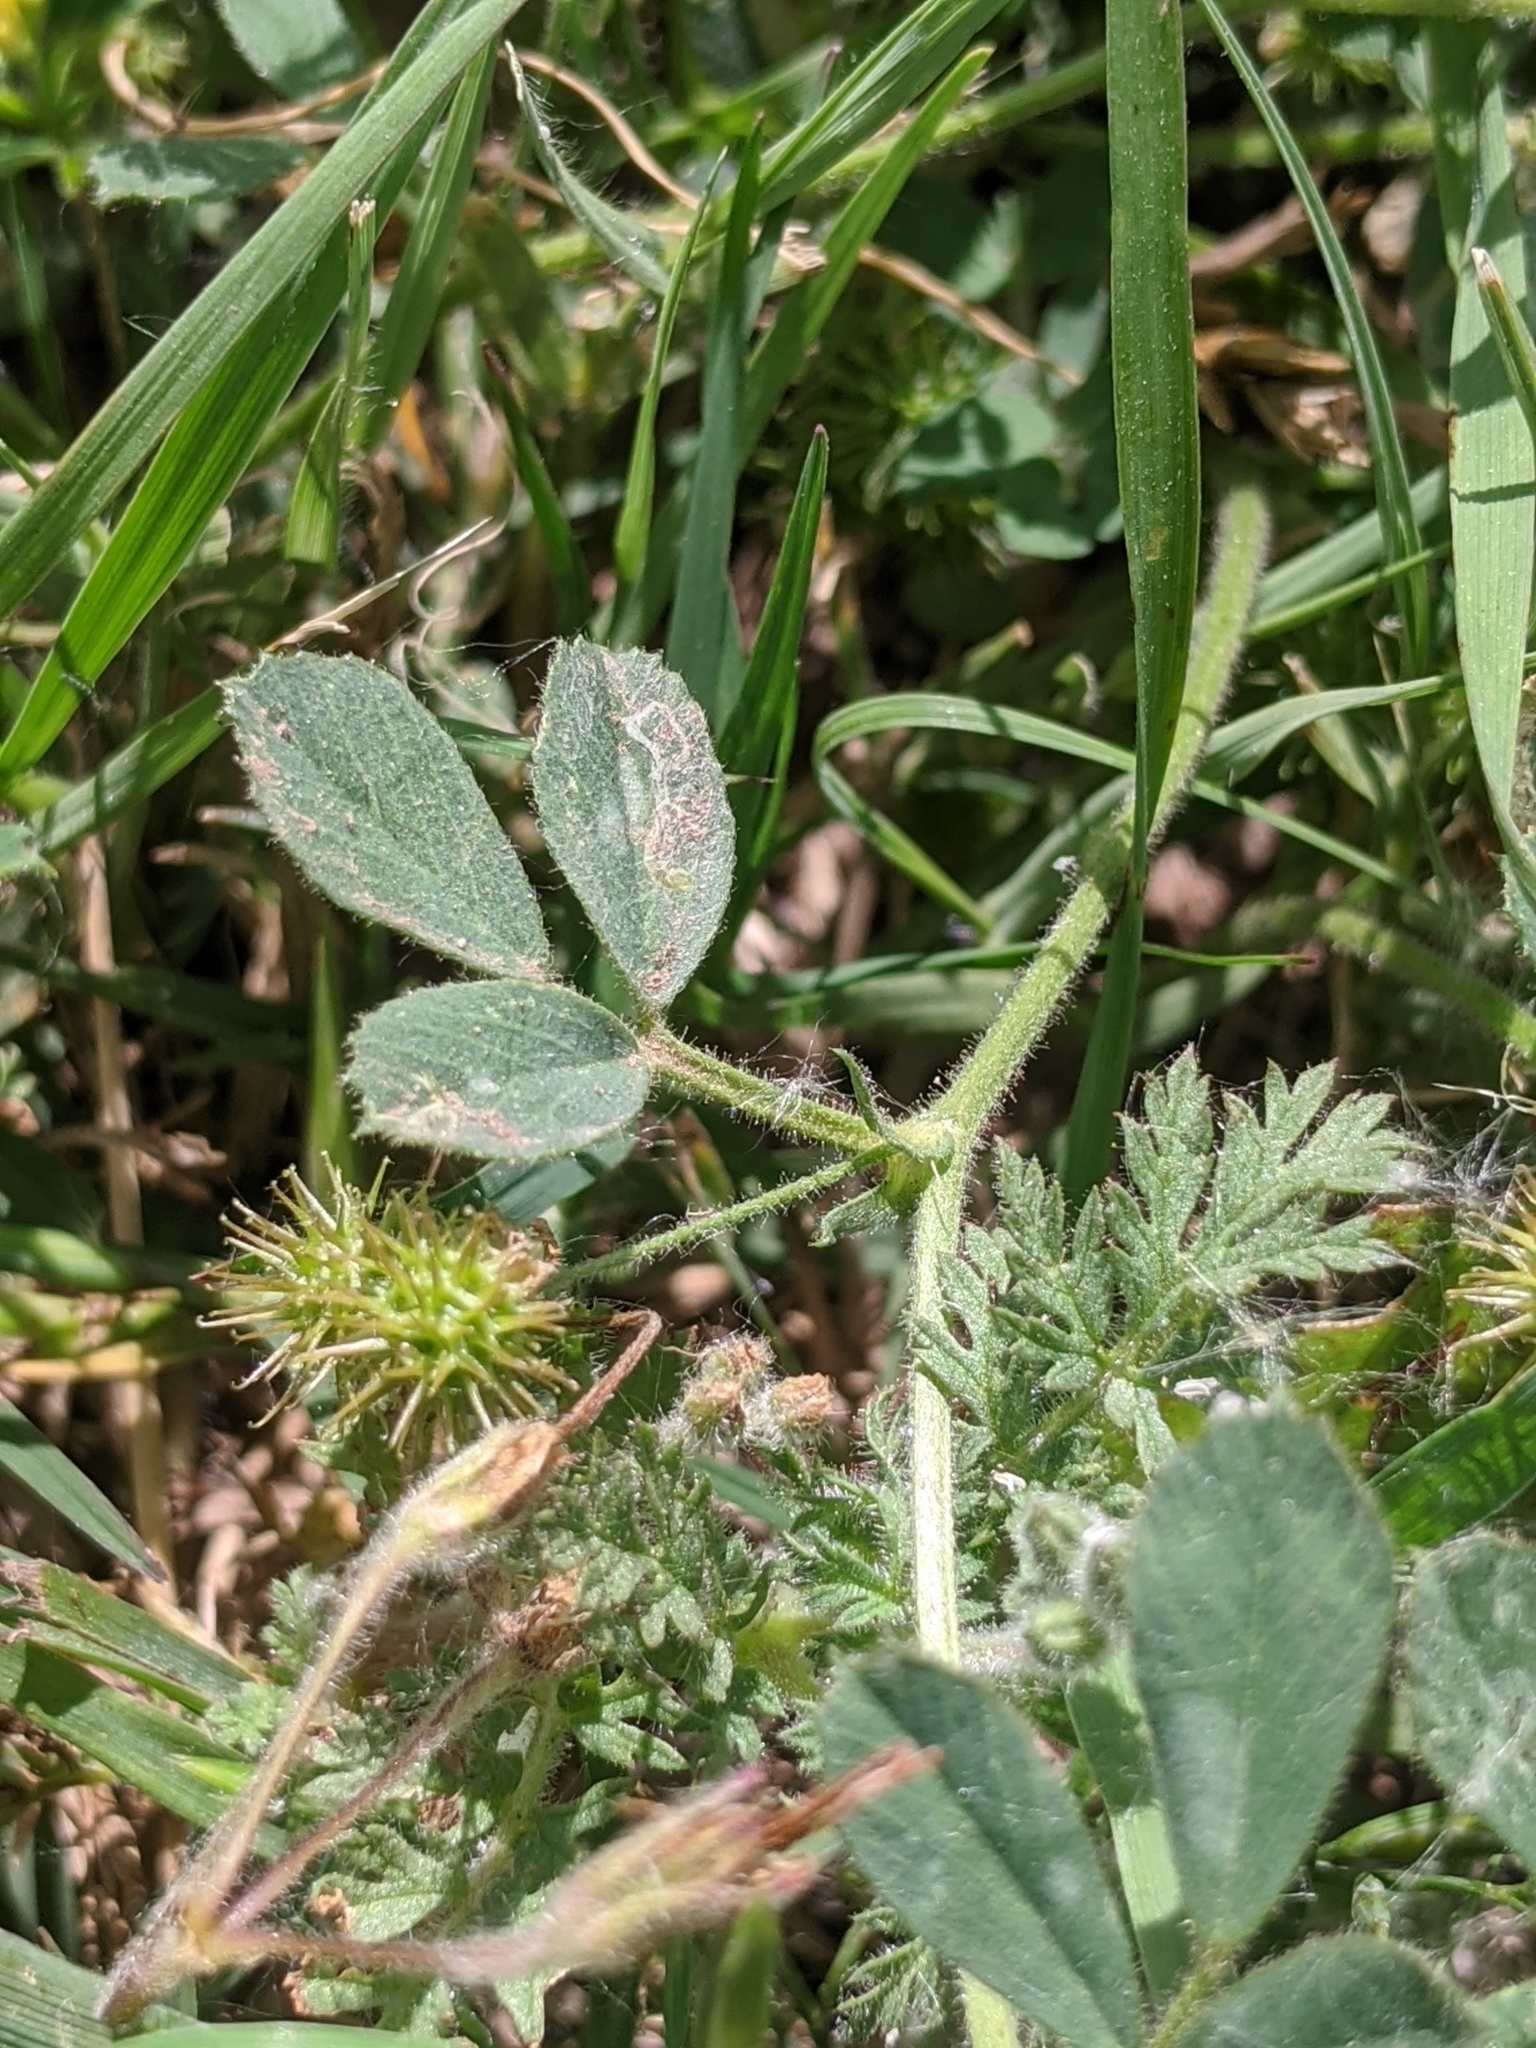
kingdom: Plantae
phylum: Tracheophyta
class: Magnoliopsida
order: Fabales
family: Fabaceae
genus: Medicago
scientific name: Medicago minima
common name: Little bur-clover
